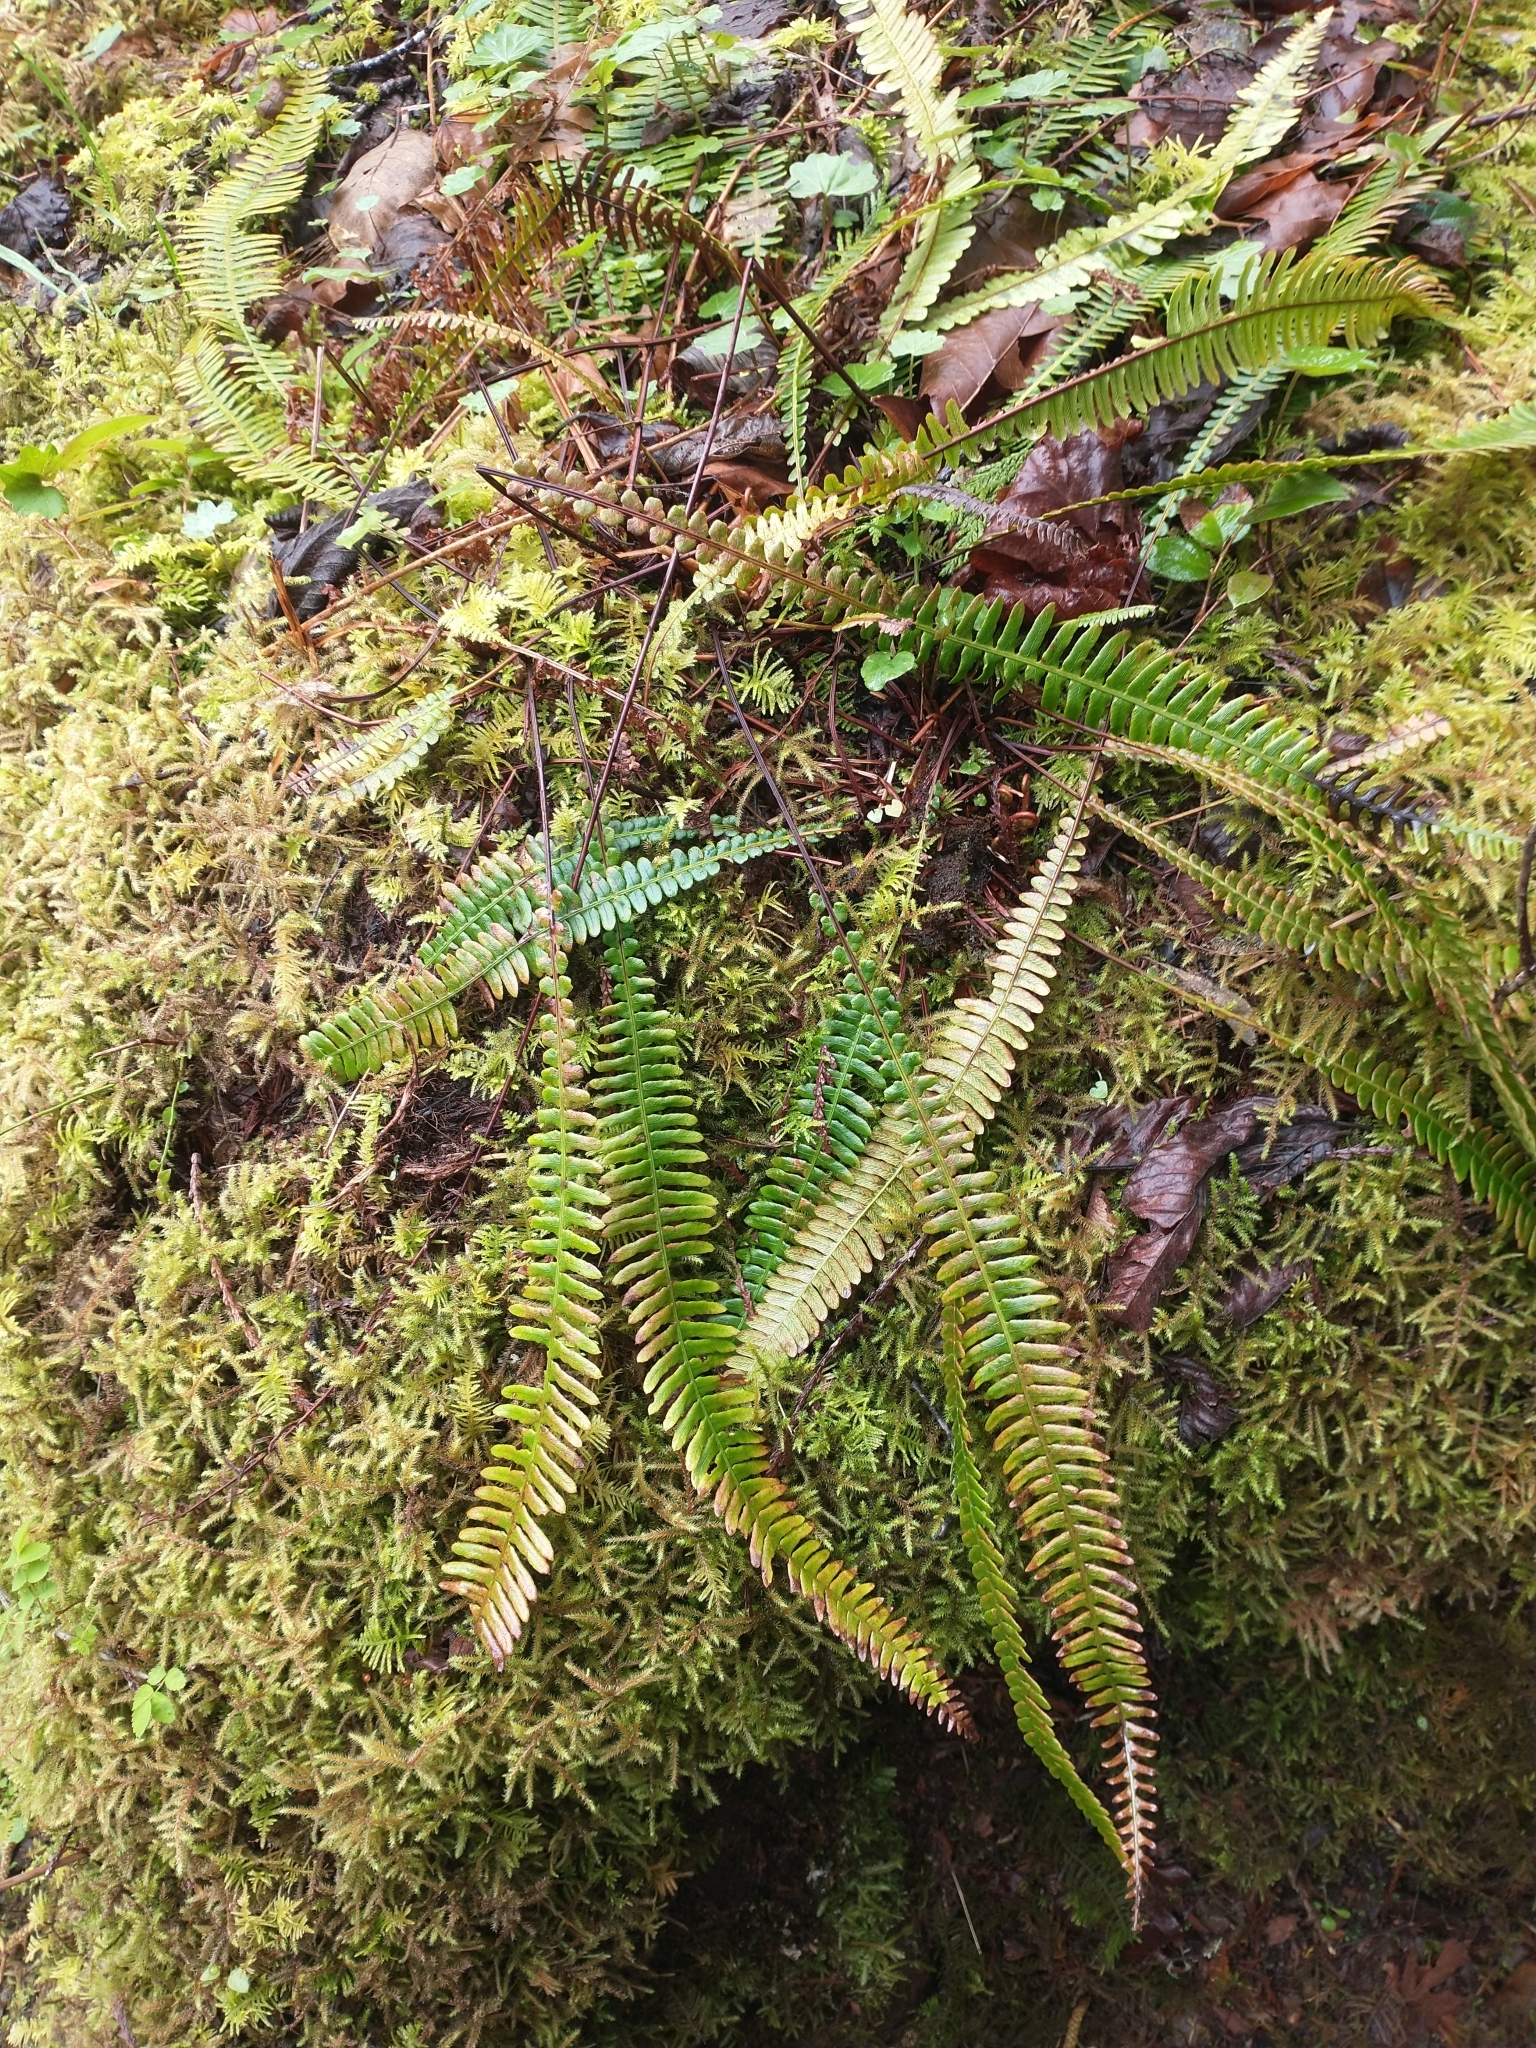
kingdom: Plantae
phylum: Tracheophyta
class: Polypodiopsida
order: Polypodiales
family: Blechnaceae
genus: Struthiopteris
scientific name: Struthiopteris spicant
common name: Deer fern
